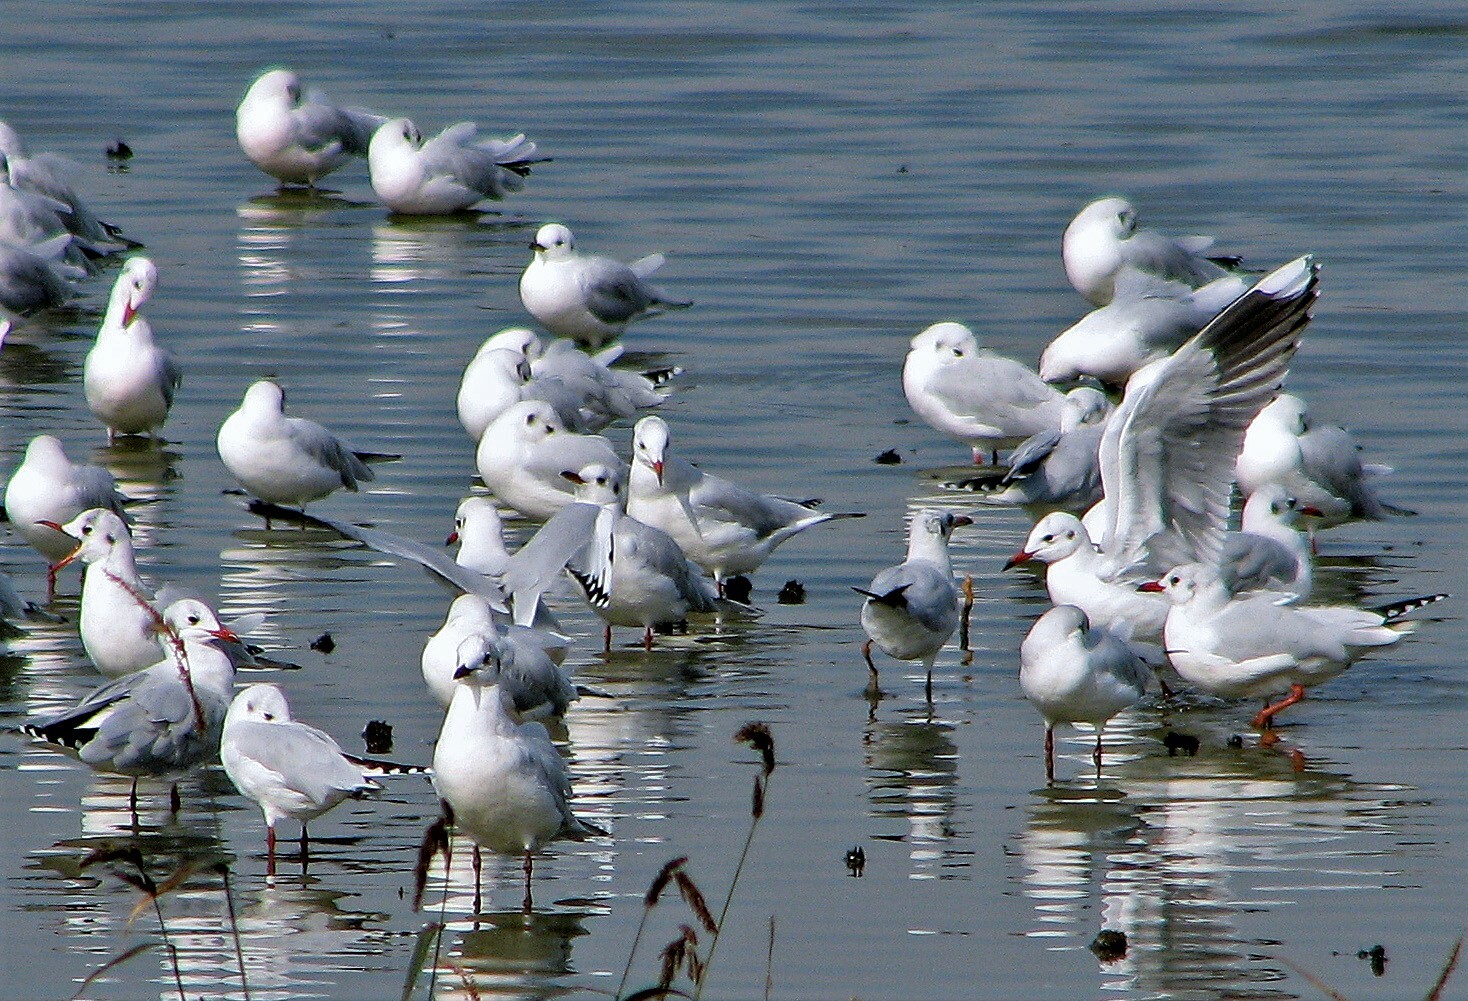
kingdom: Animalia
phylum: Chordata
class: Aves
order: Charadriiformes
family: Laridae
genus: Chroicocephalus
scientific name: Chroicocephalus maculipennis
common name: Brown-hooded gull
